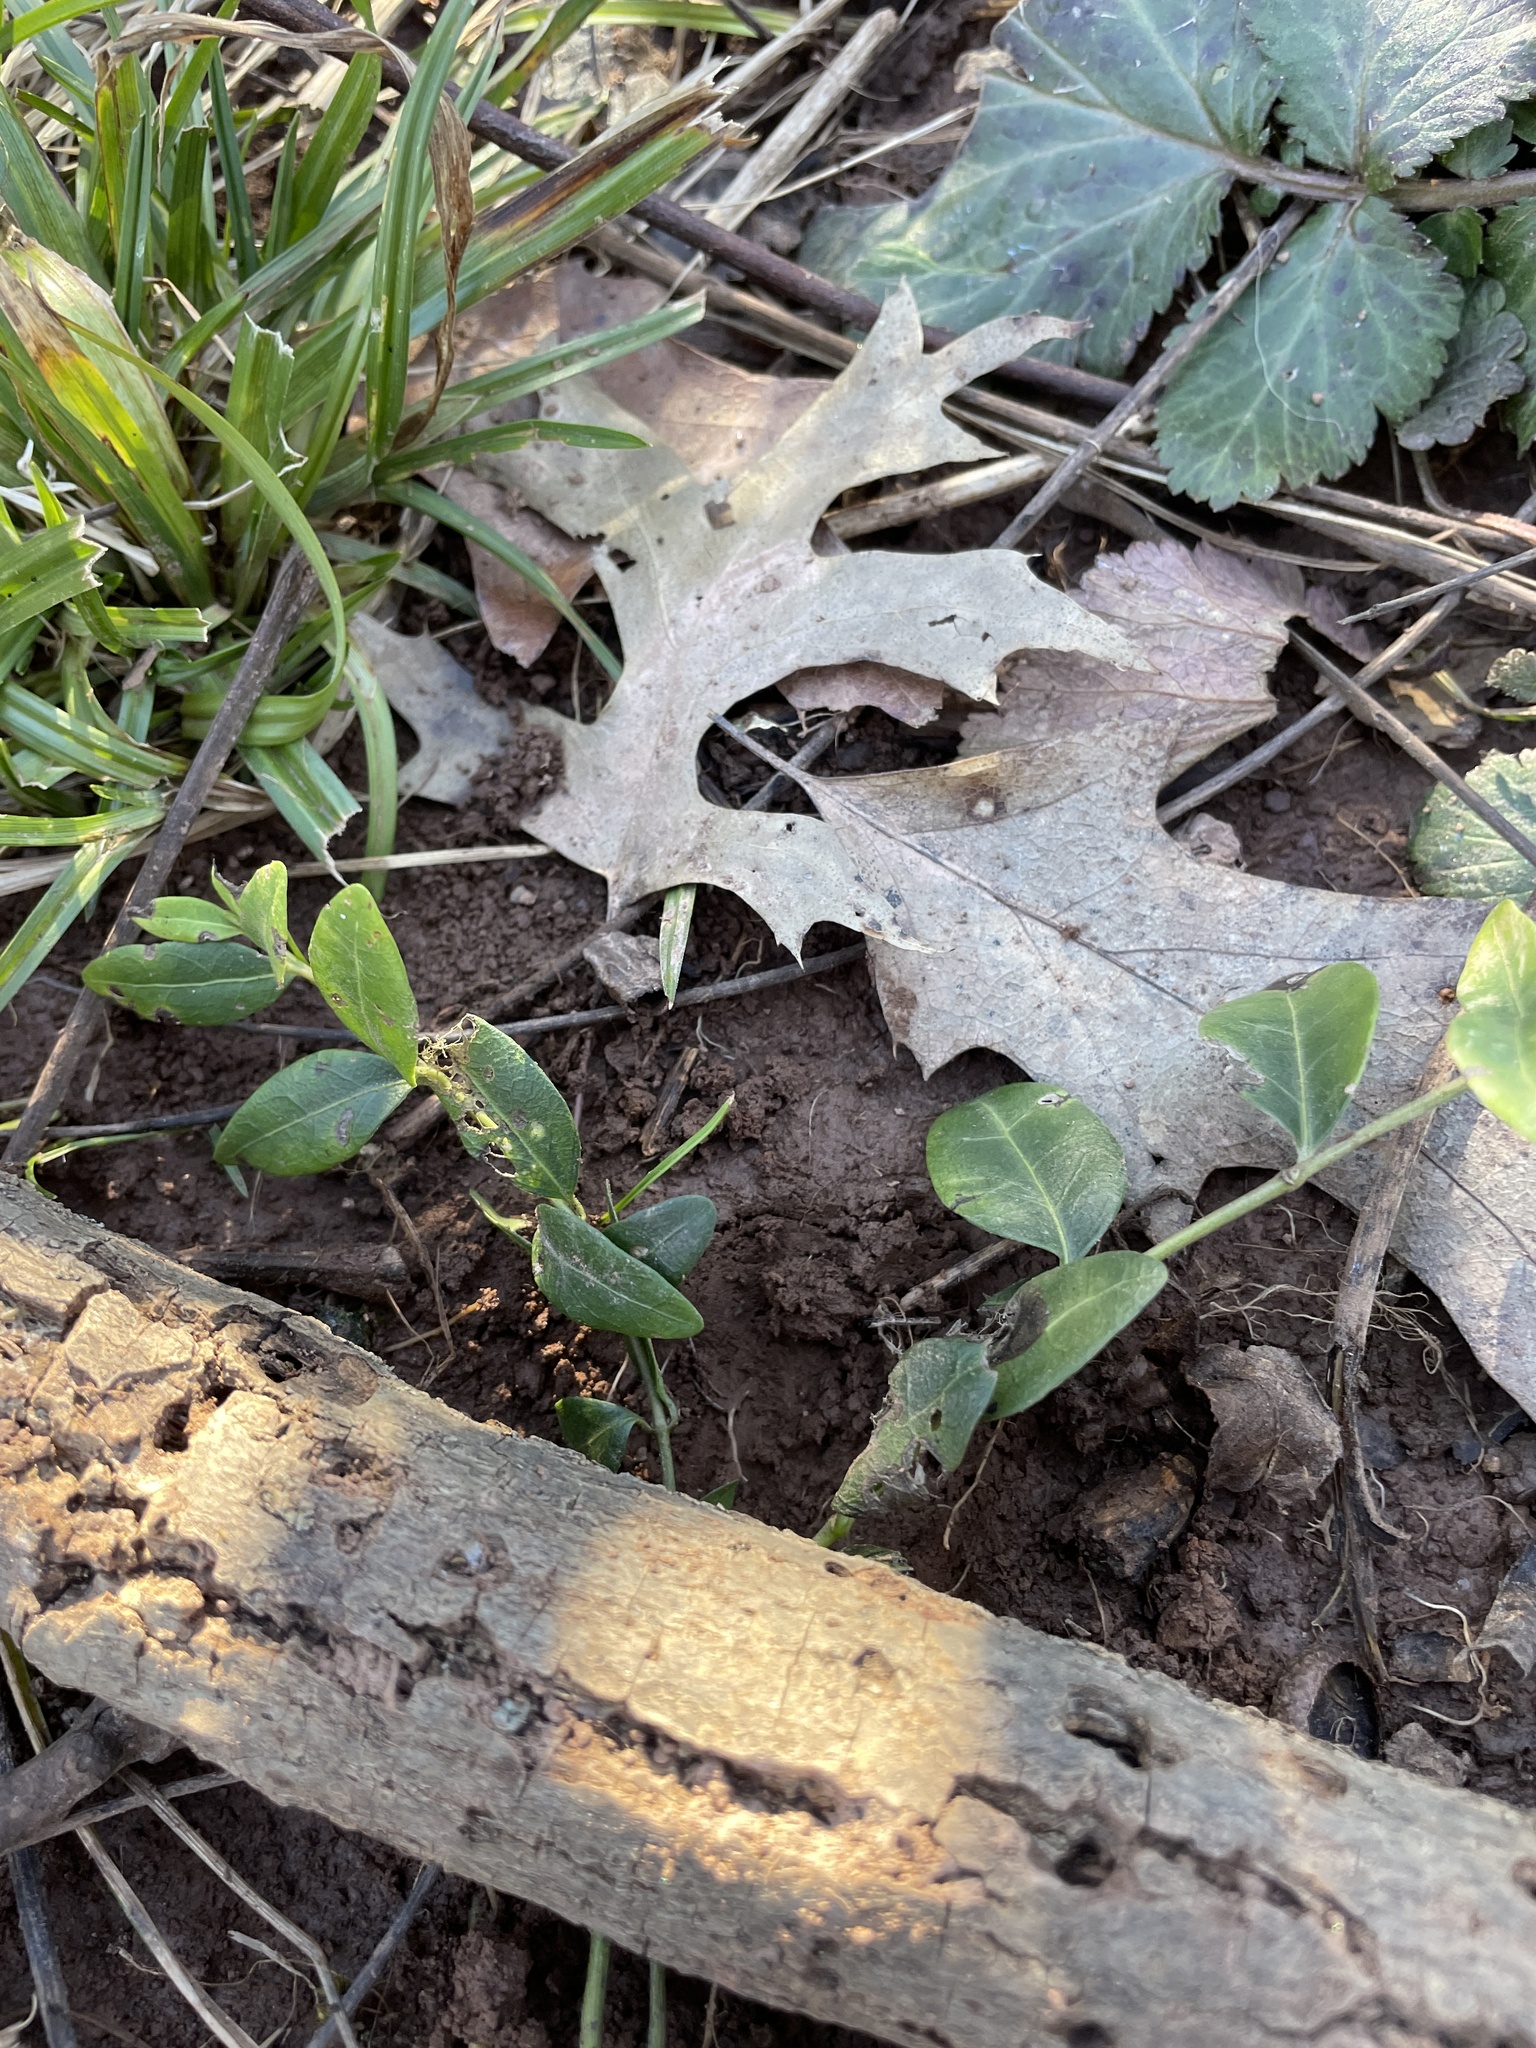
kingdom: Plantae
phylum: Tracheophyta
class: Magnoliopsida
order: Gentianales
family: Apocynaceae
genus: Vinca
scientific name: Vinca minor
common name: Lesser periwinkle
